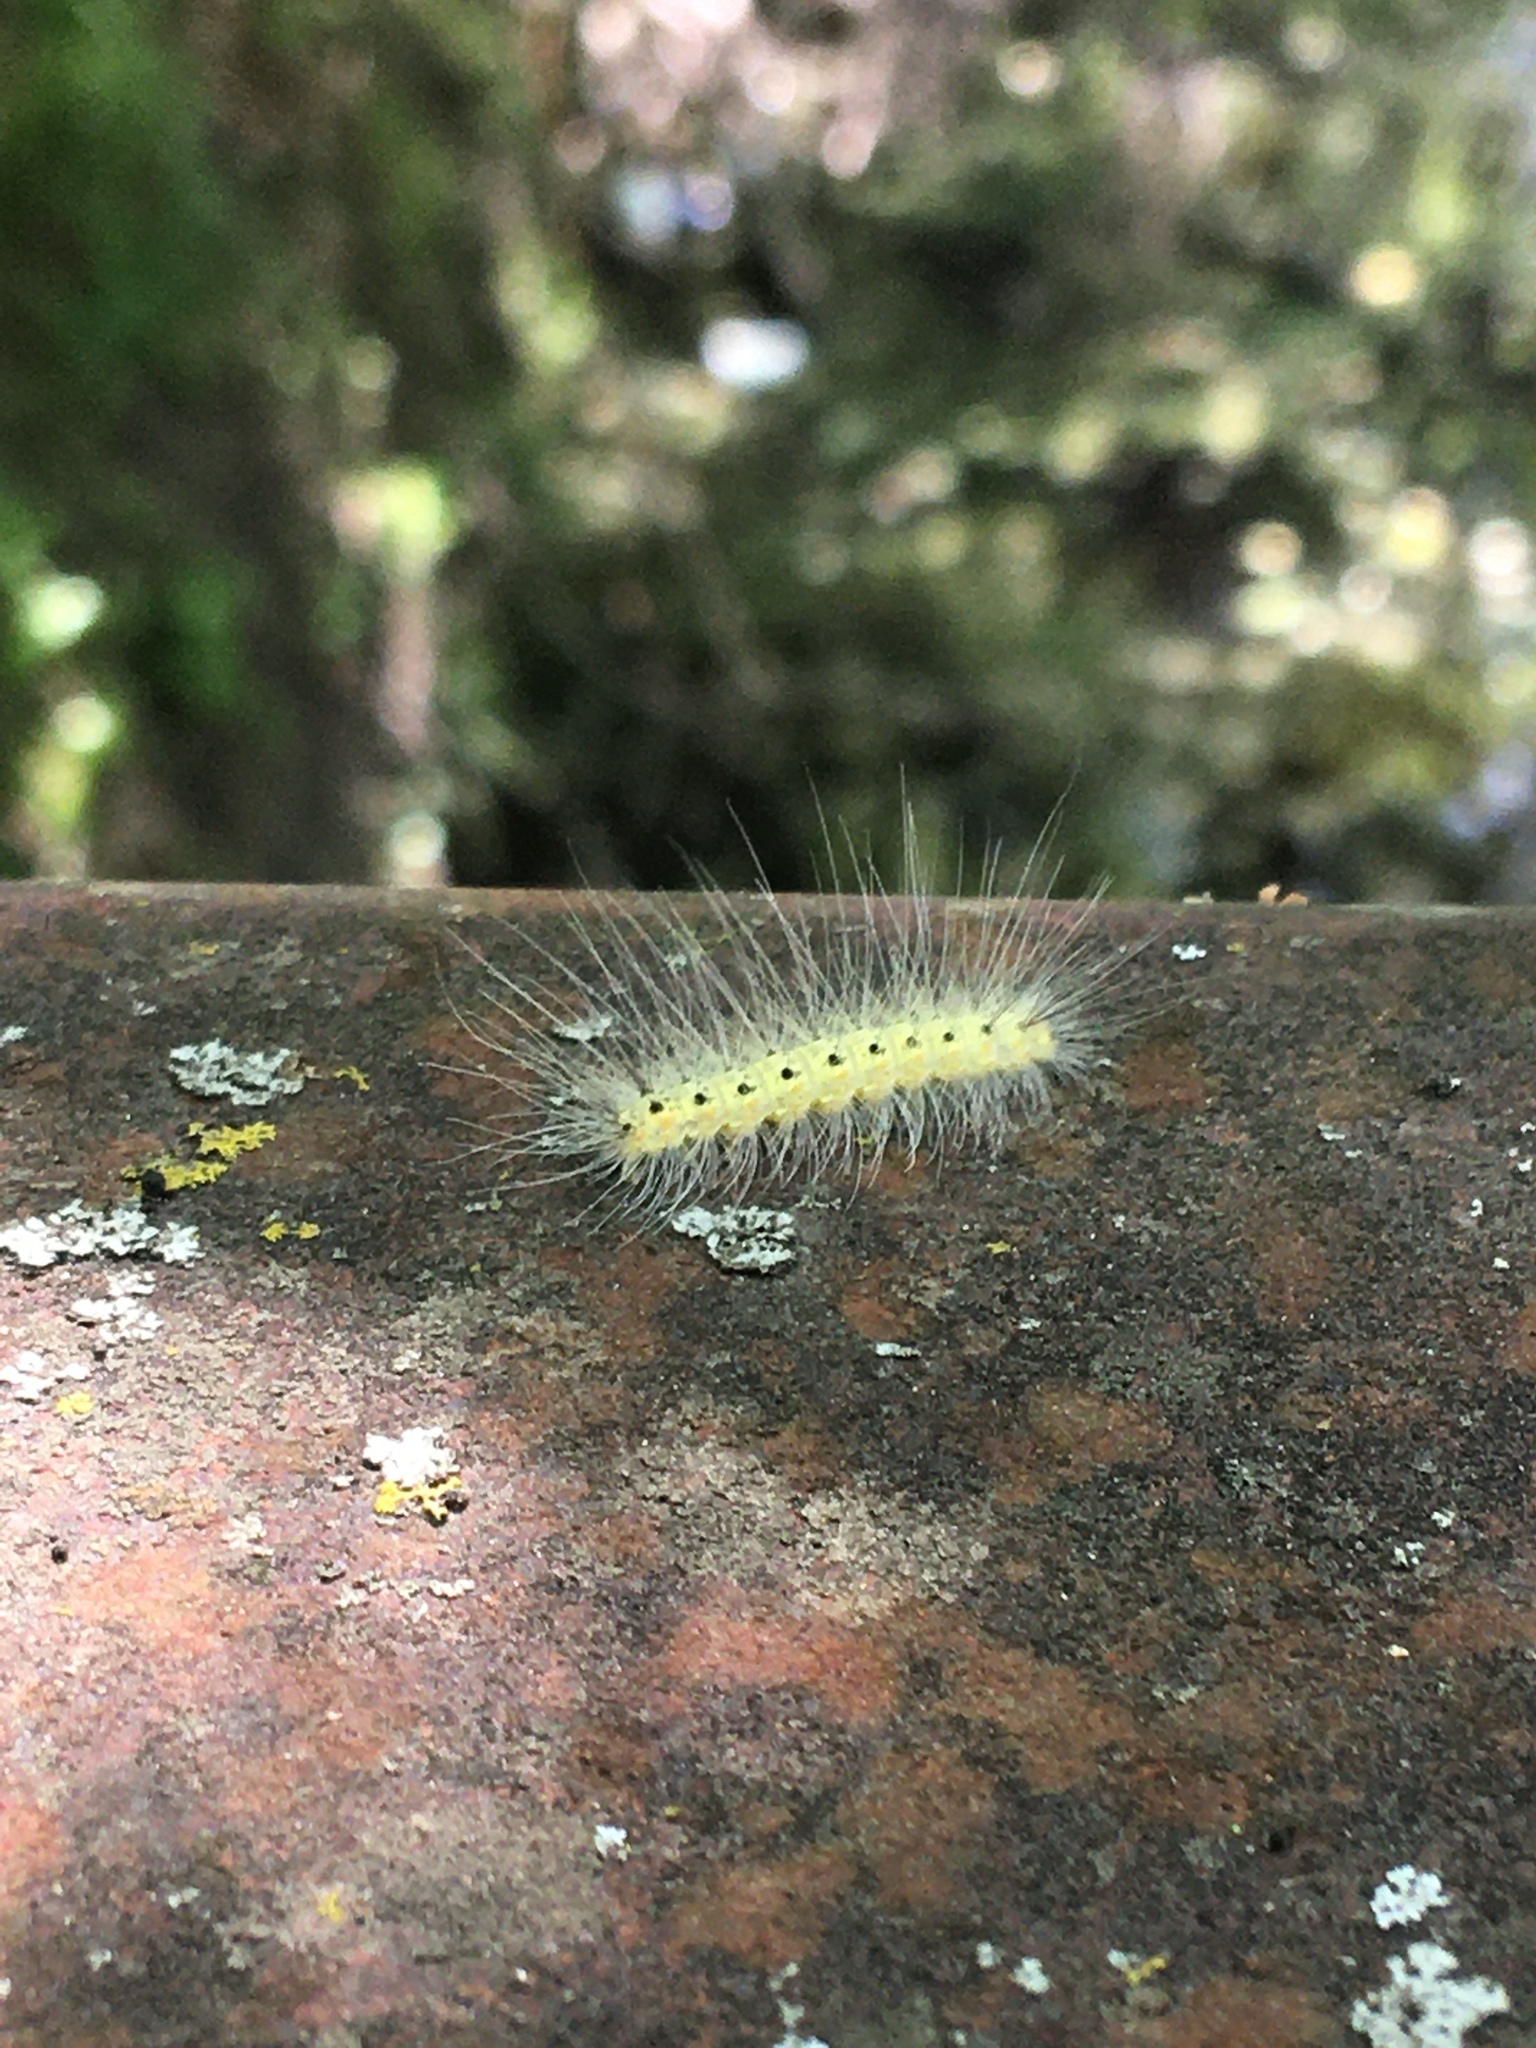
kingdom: Animalia
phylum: Arthropoda
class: Insecta
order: Lepidoptera
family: Erebidae
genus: Hyphantria
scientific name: Hyphantria cunea
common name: American white moth
